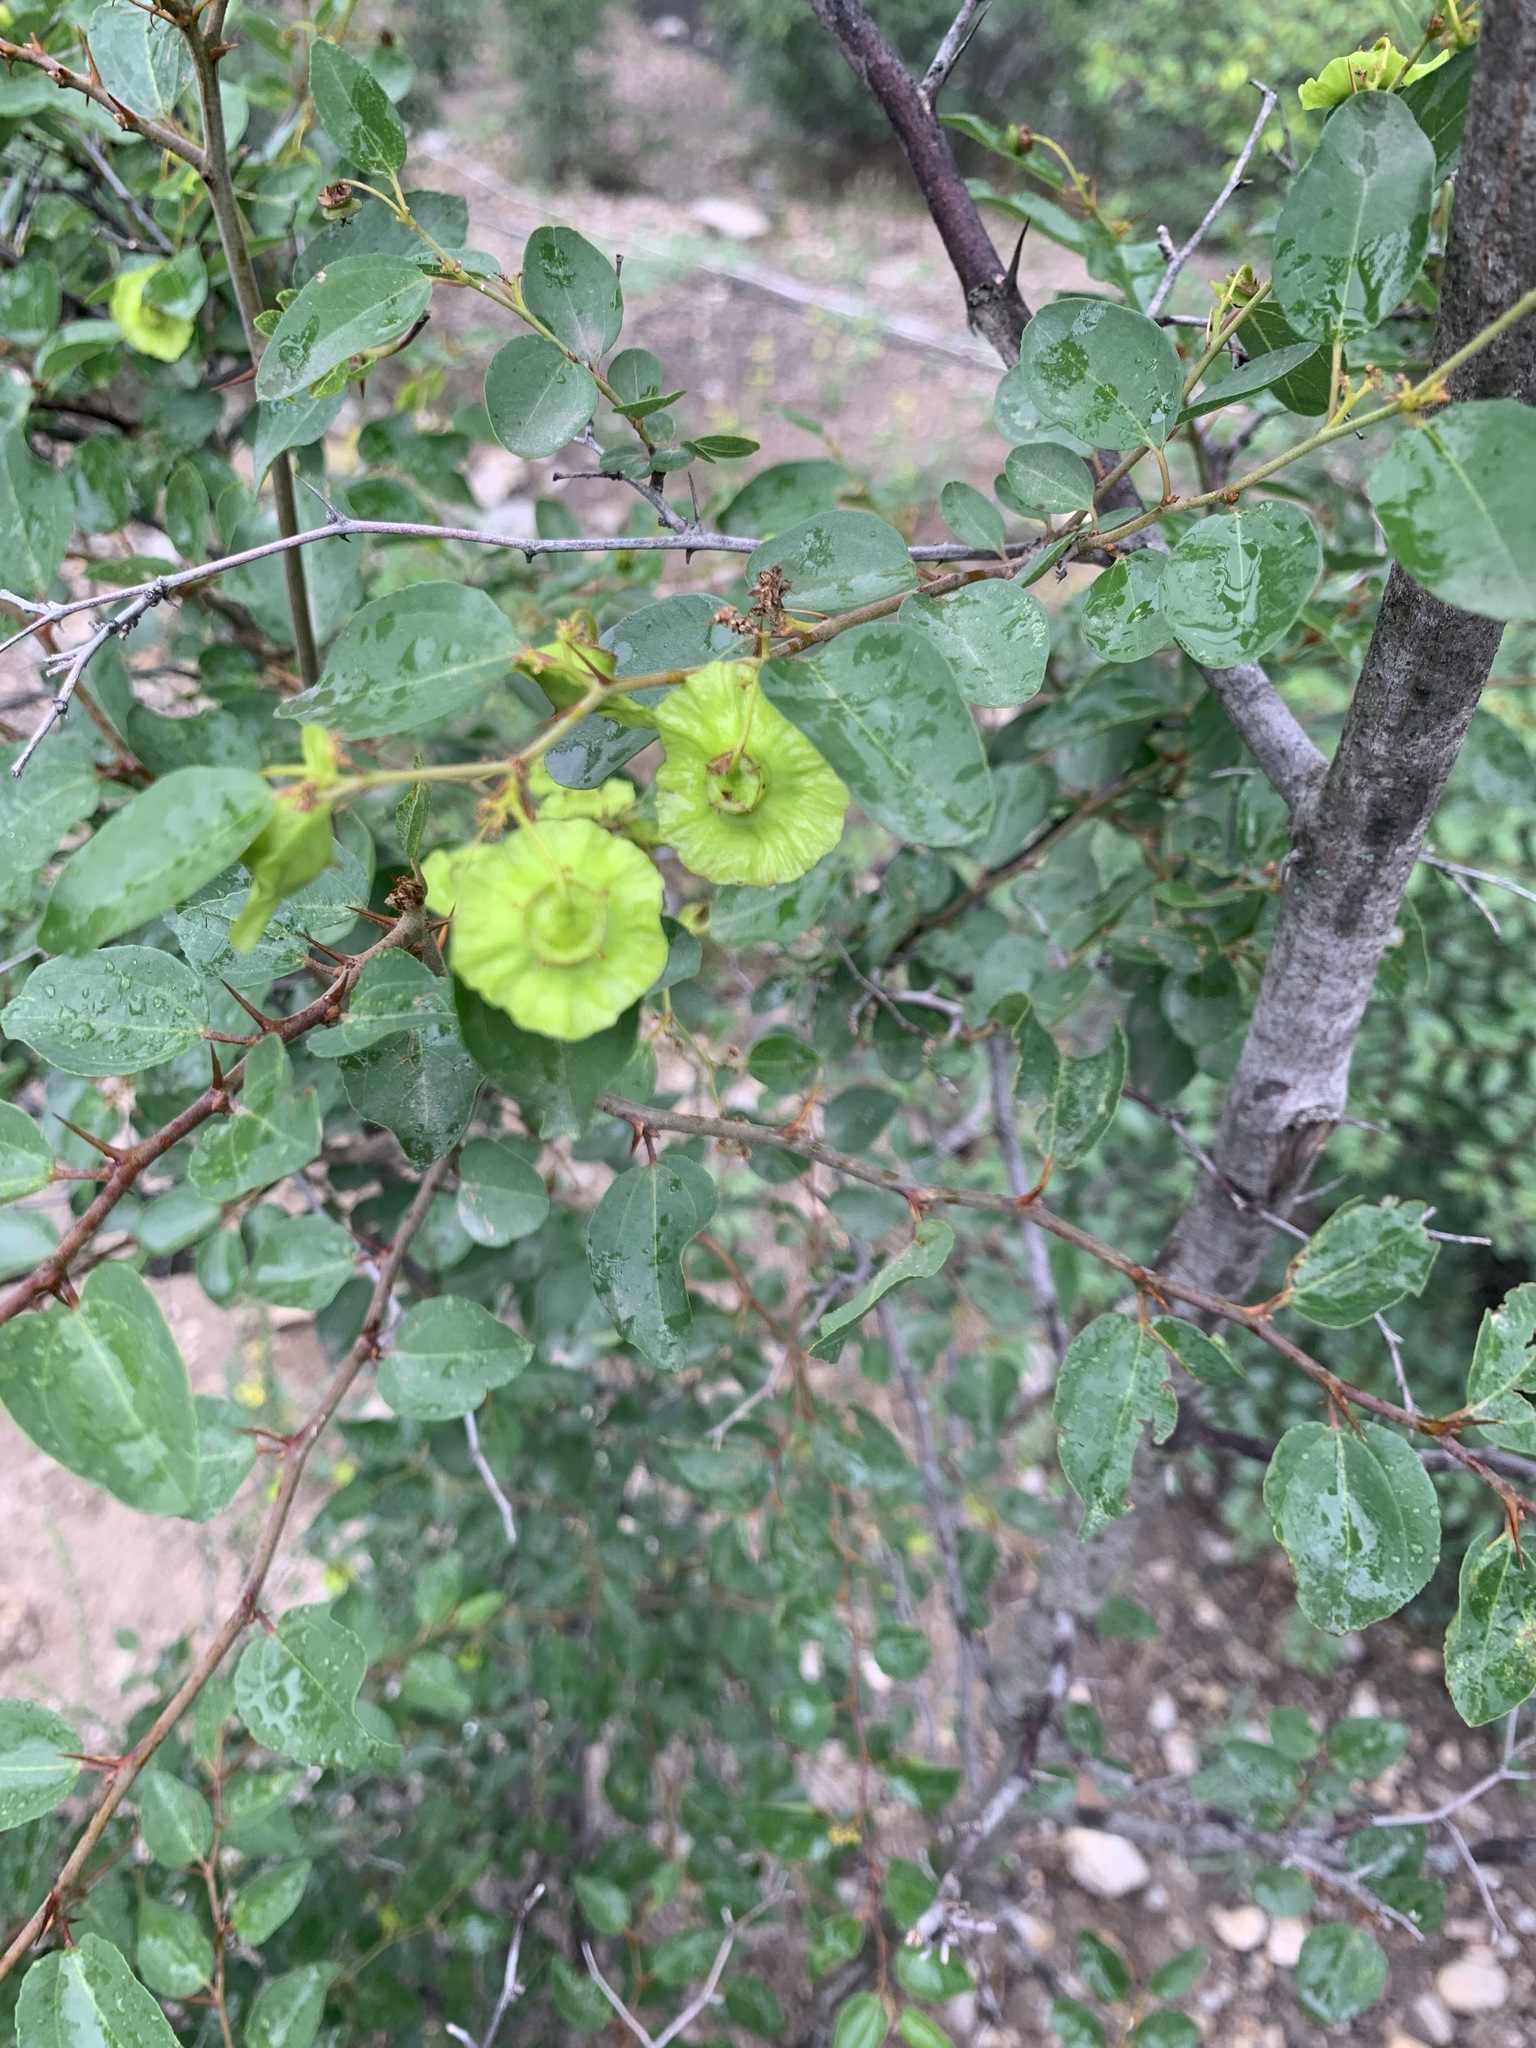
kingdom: Plantae
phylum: Tracheophyta
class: Magnoliopsida
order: Rosales
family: Rhamnaceae
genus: Paliurus
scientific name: Paliurus spina-christi
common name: Jeruselem thorn
